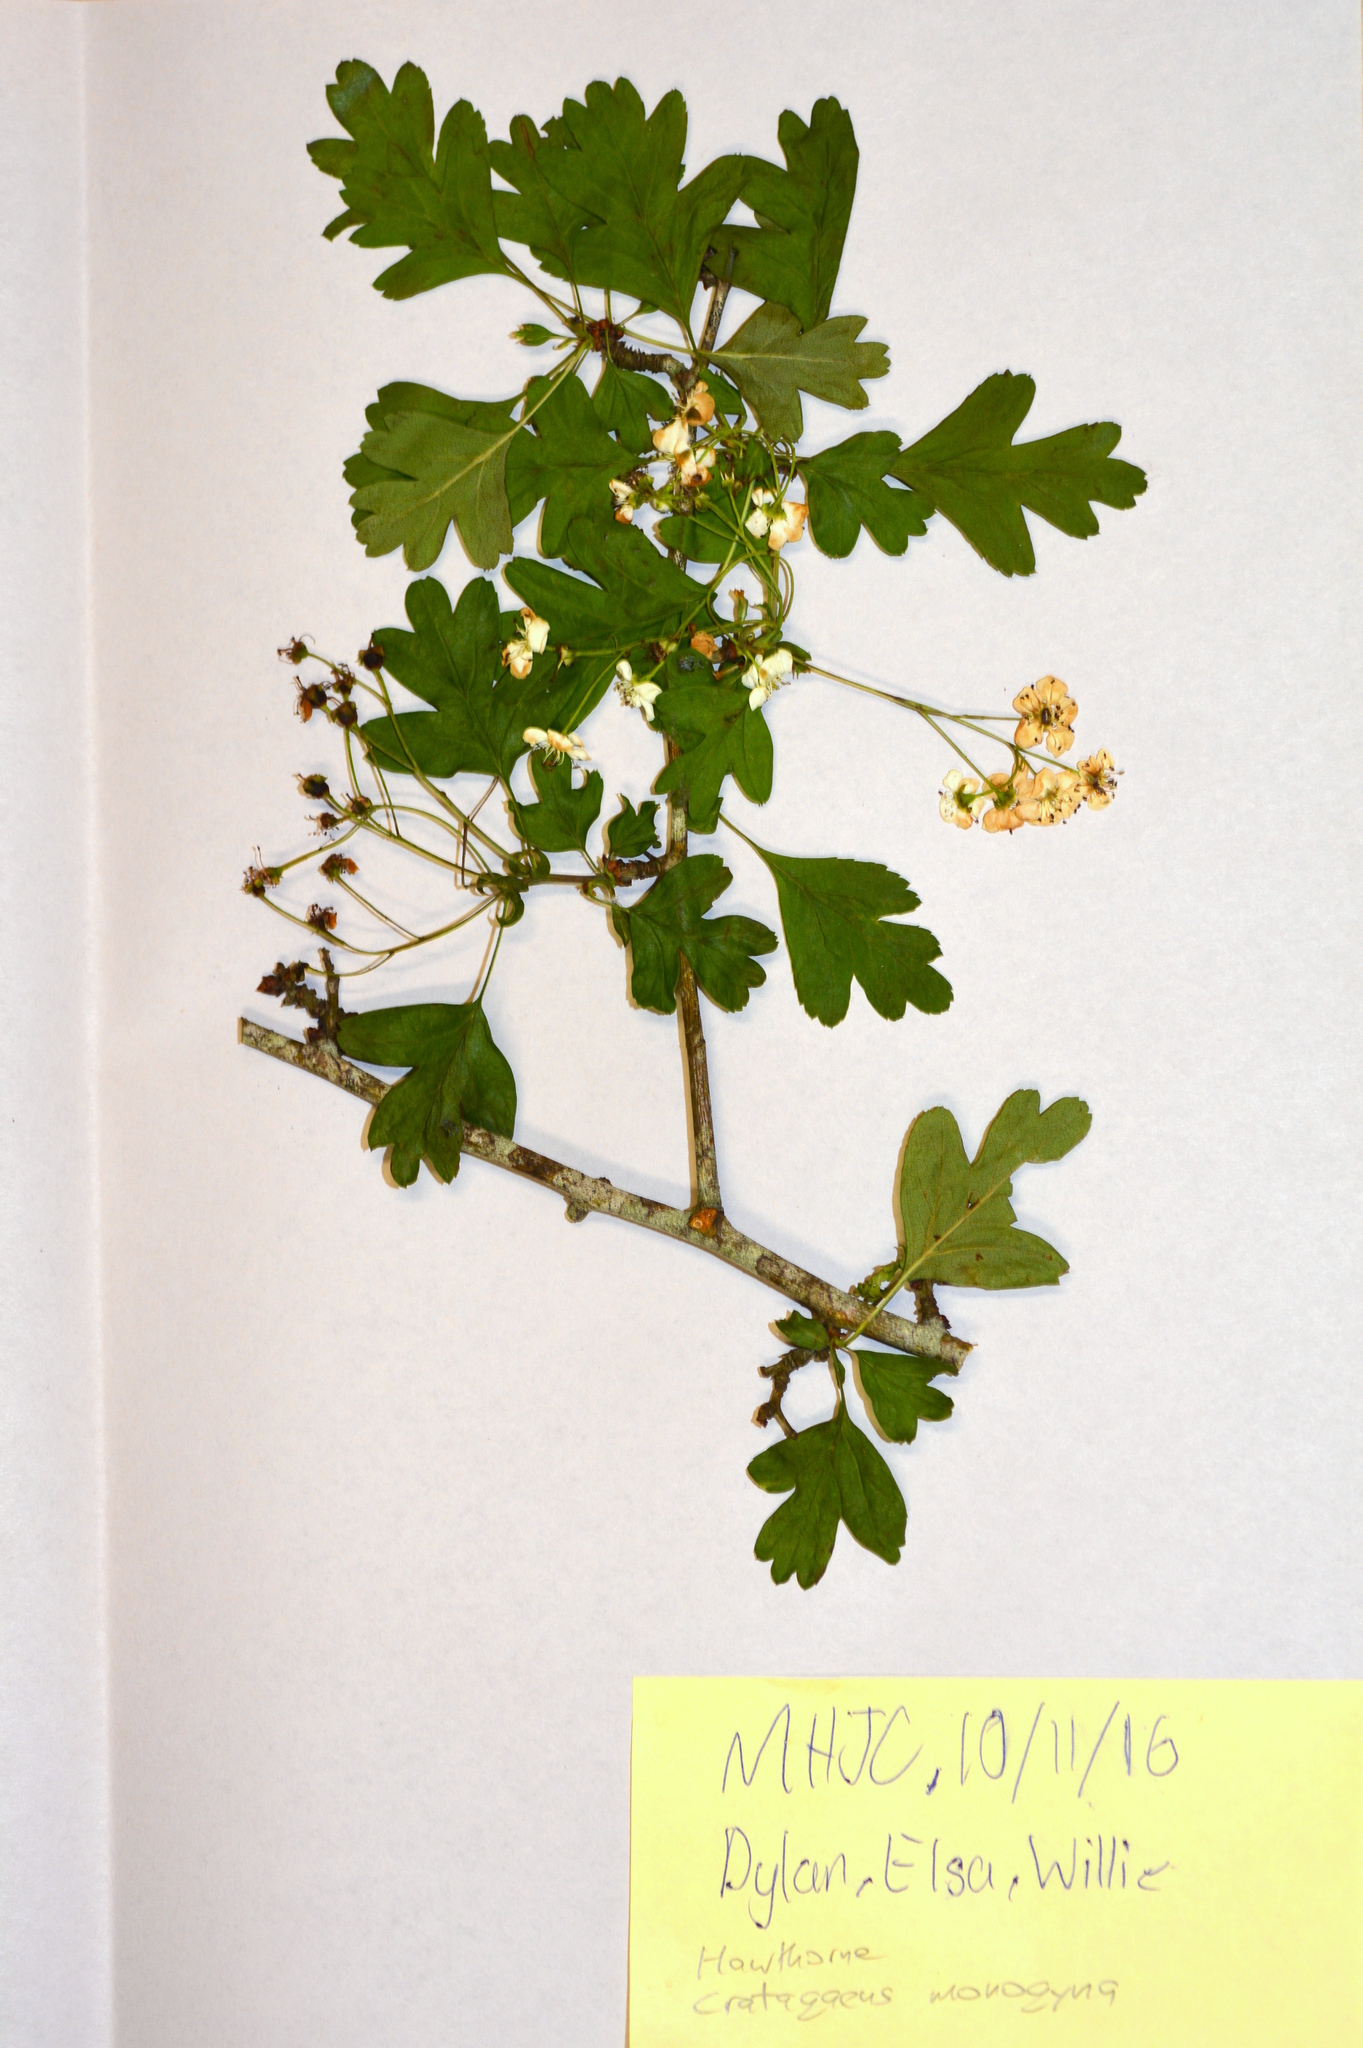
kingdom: Plantae
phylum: Tracheophyta
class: Magnoliopsida
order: Rosales
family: Rosaceae
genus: Crataegus
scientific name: Crataegus monogyna
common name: Hawthorn
